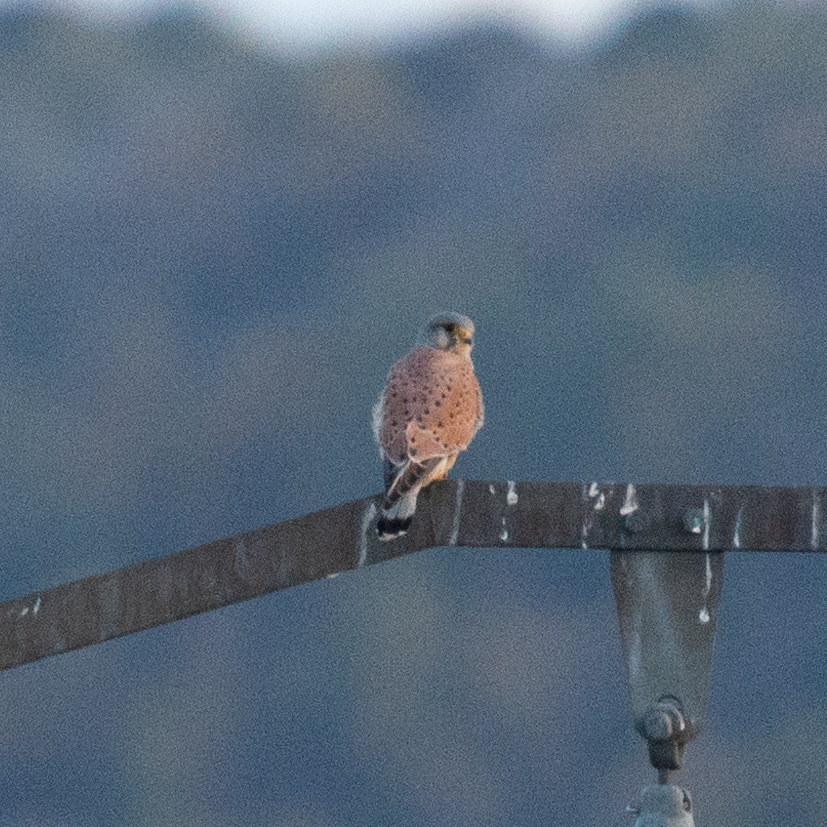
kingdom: Animalia
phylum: Chordata
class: Aves
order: Falconiformes
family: Falconidae
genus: Falco
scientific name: Falco tinnunculus
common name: Common kestrel
